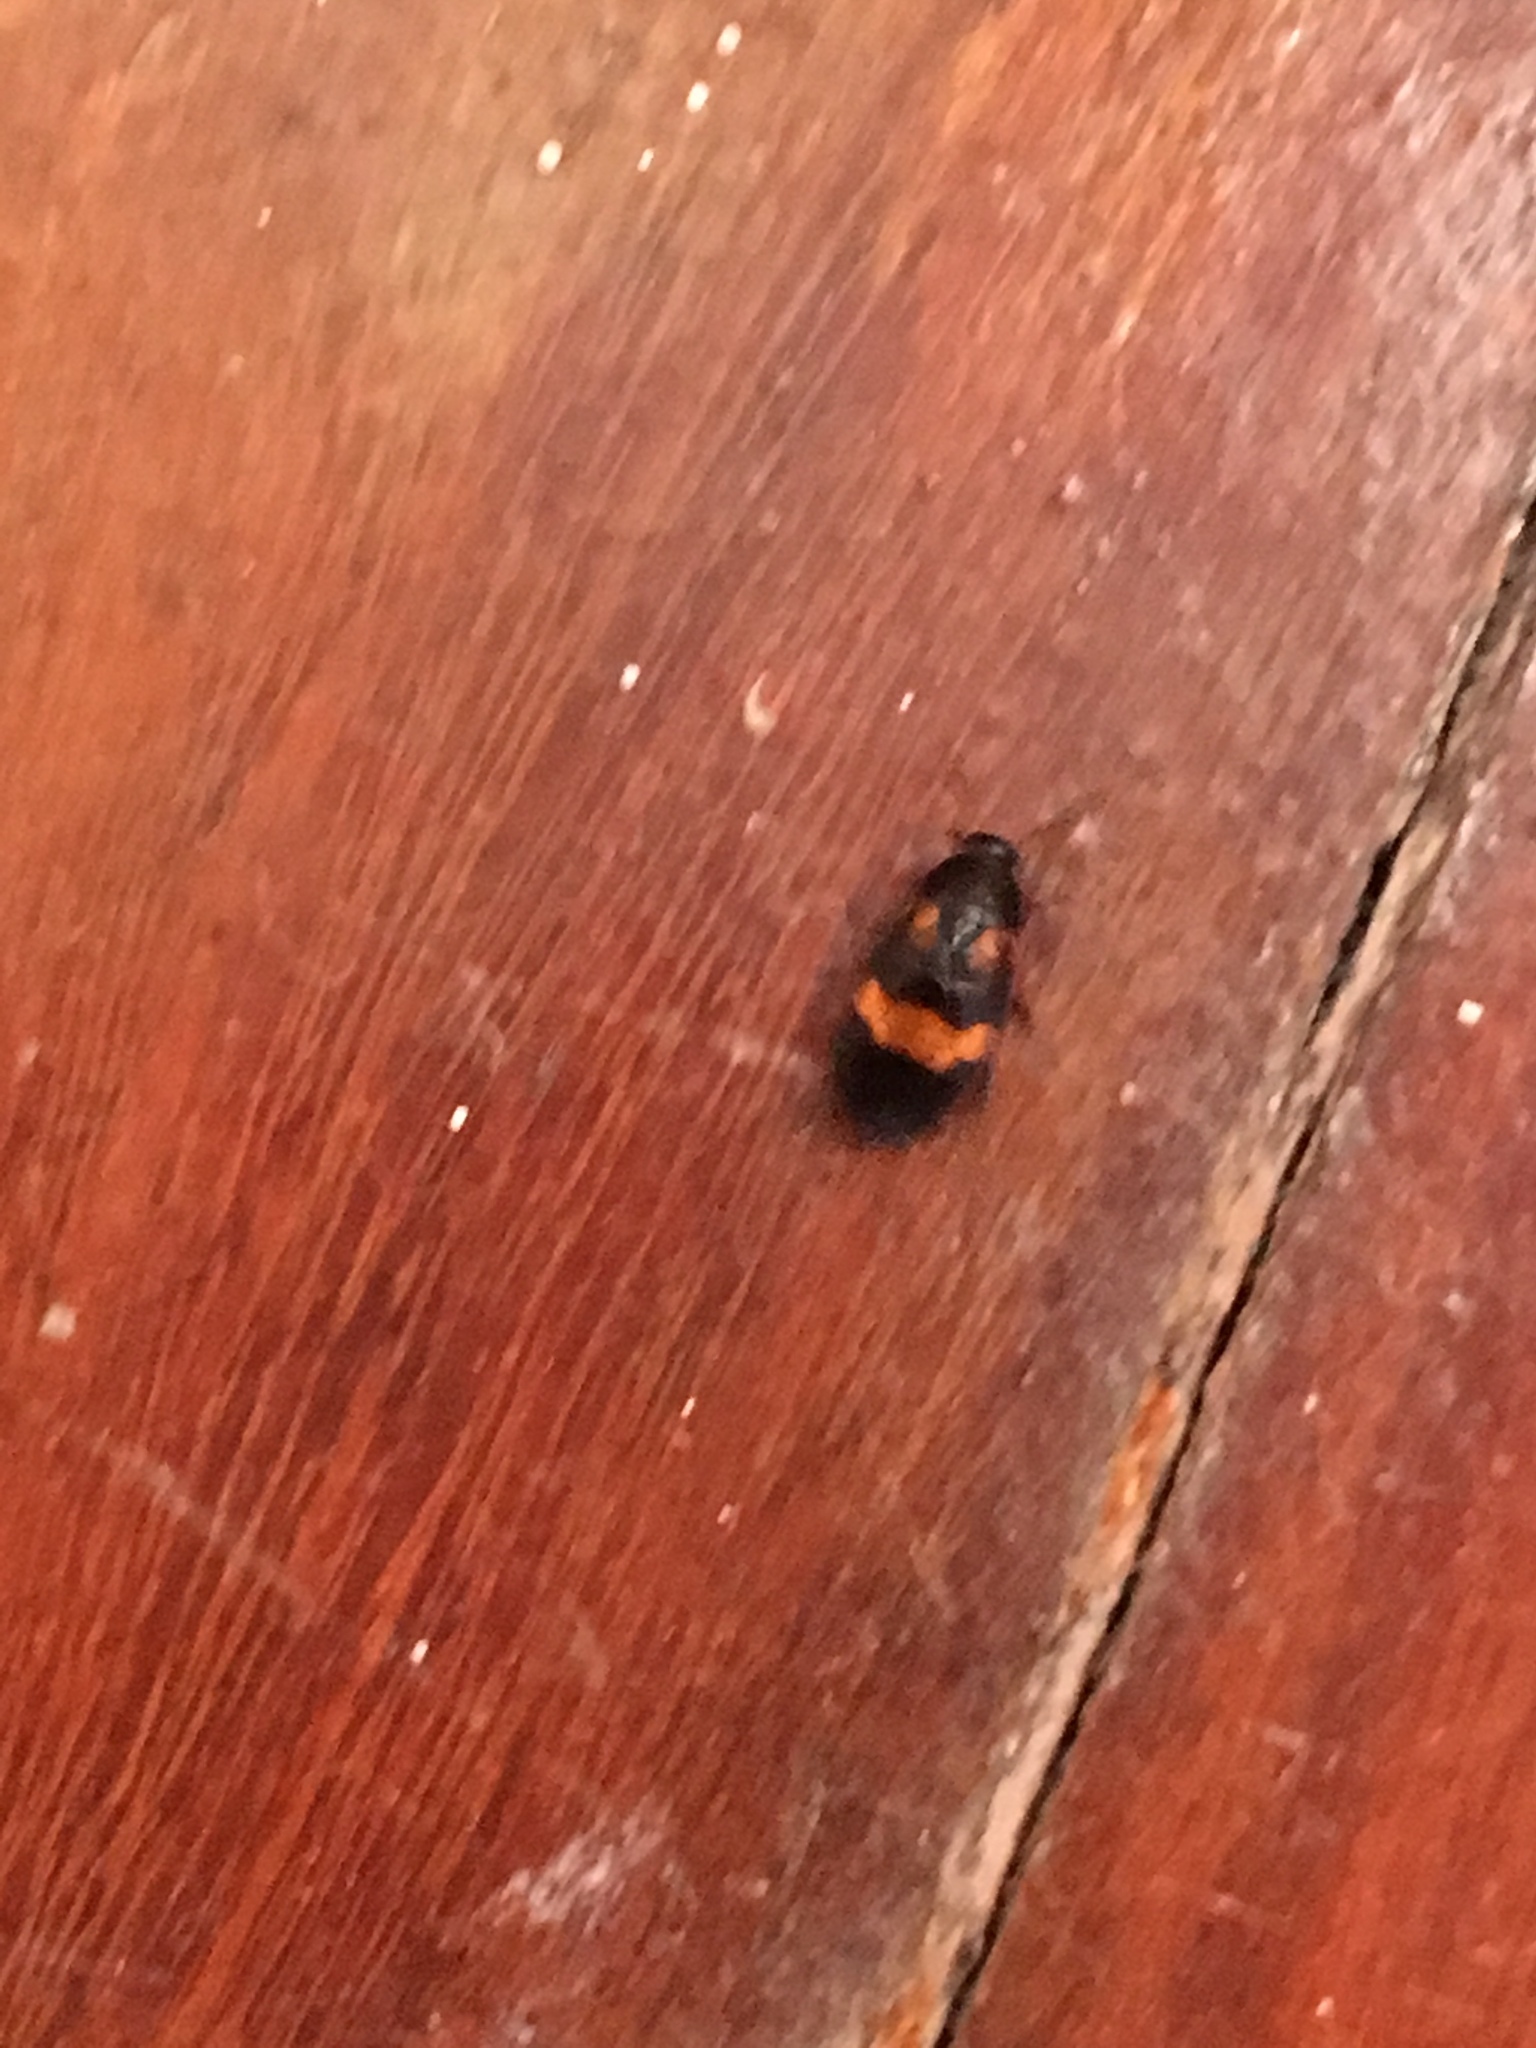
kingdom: Animalia
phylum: Arthropoda
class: Insecta
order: Blattodea
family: Corydiidae
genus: Holocompsa
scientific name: Holocompsa azteca
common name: Aztec hairy cockroach
